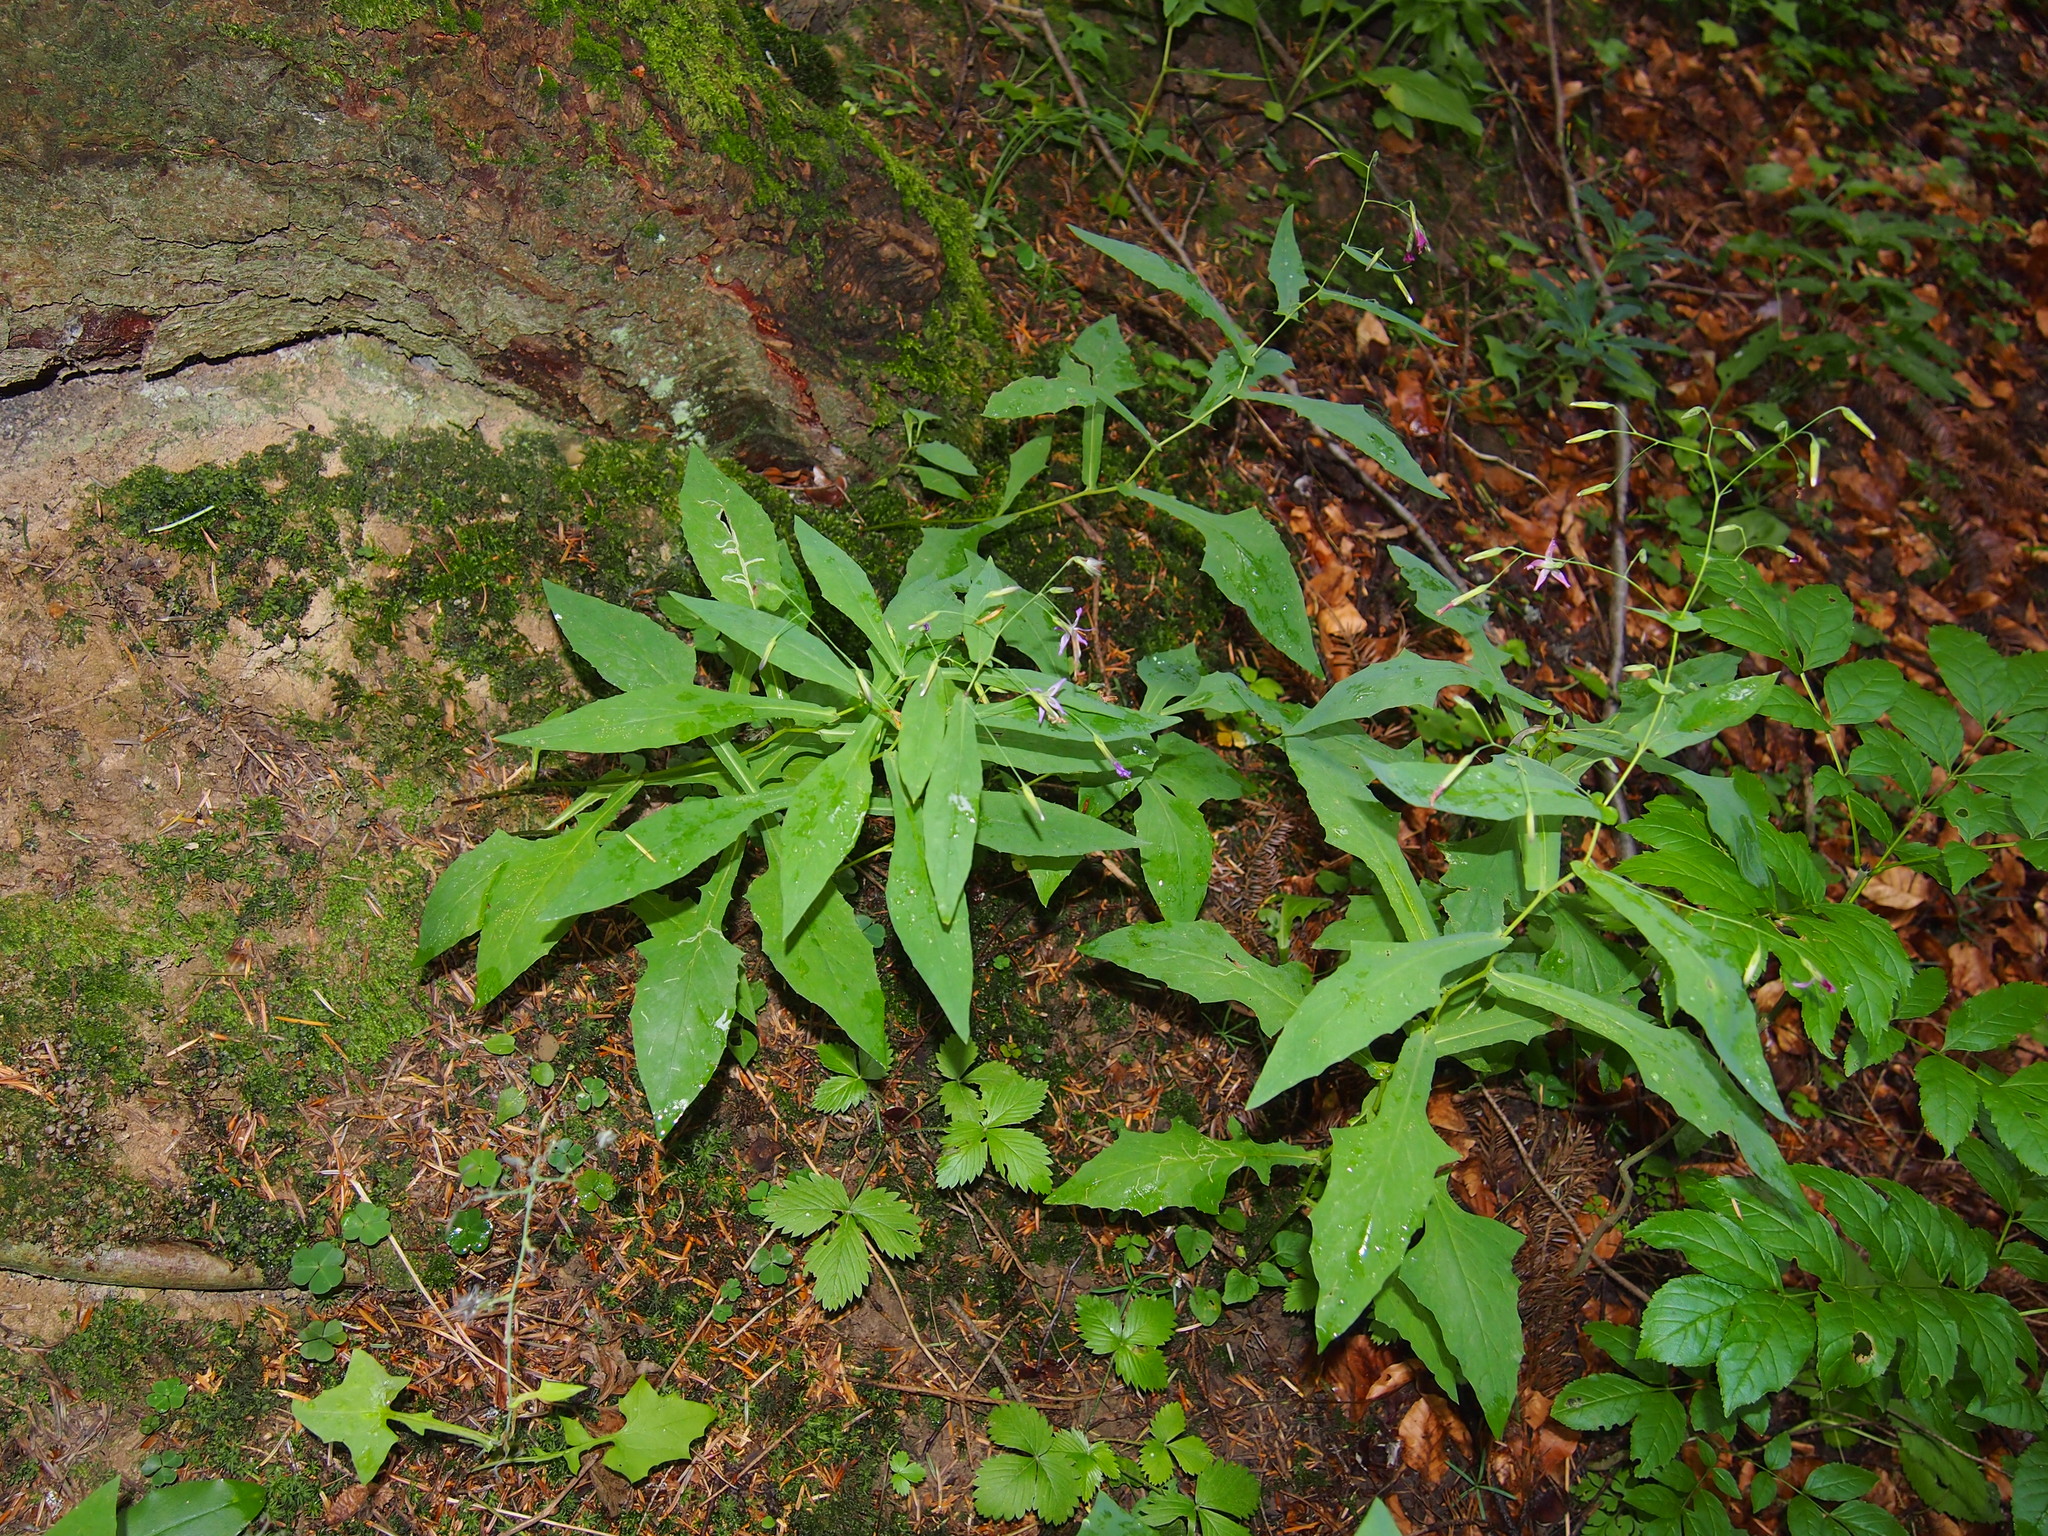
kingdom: Plantae
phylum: Tracheophyta
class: Magnoliopsida
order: Asterales
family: Asteraceae
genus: Prenanthes
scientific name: Prenanthes purpurea
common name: Purple lettuce
